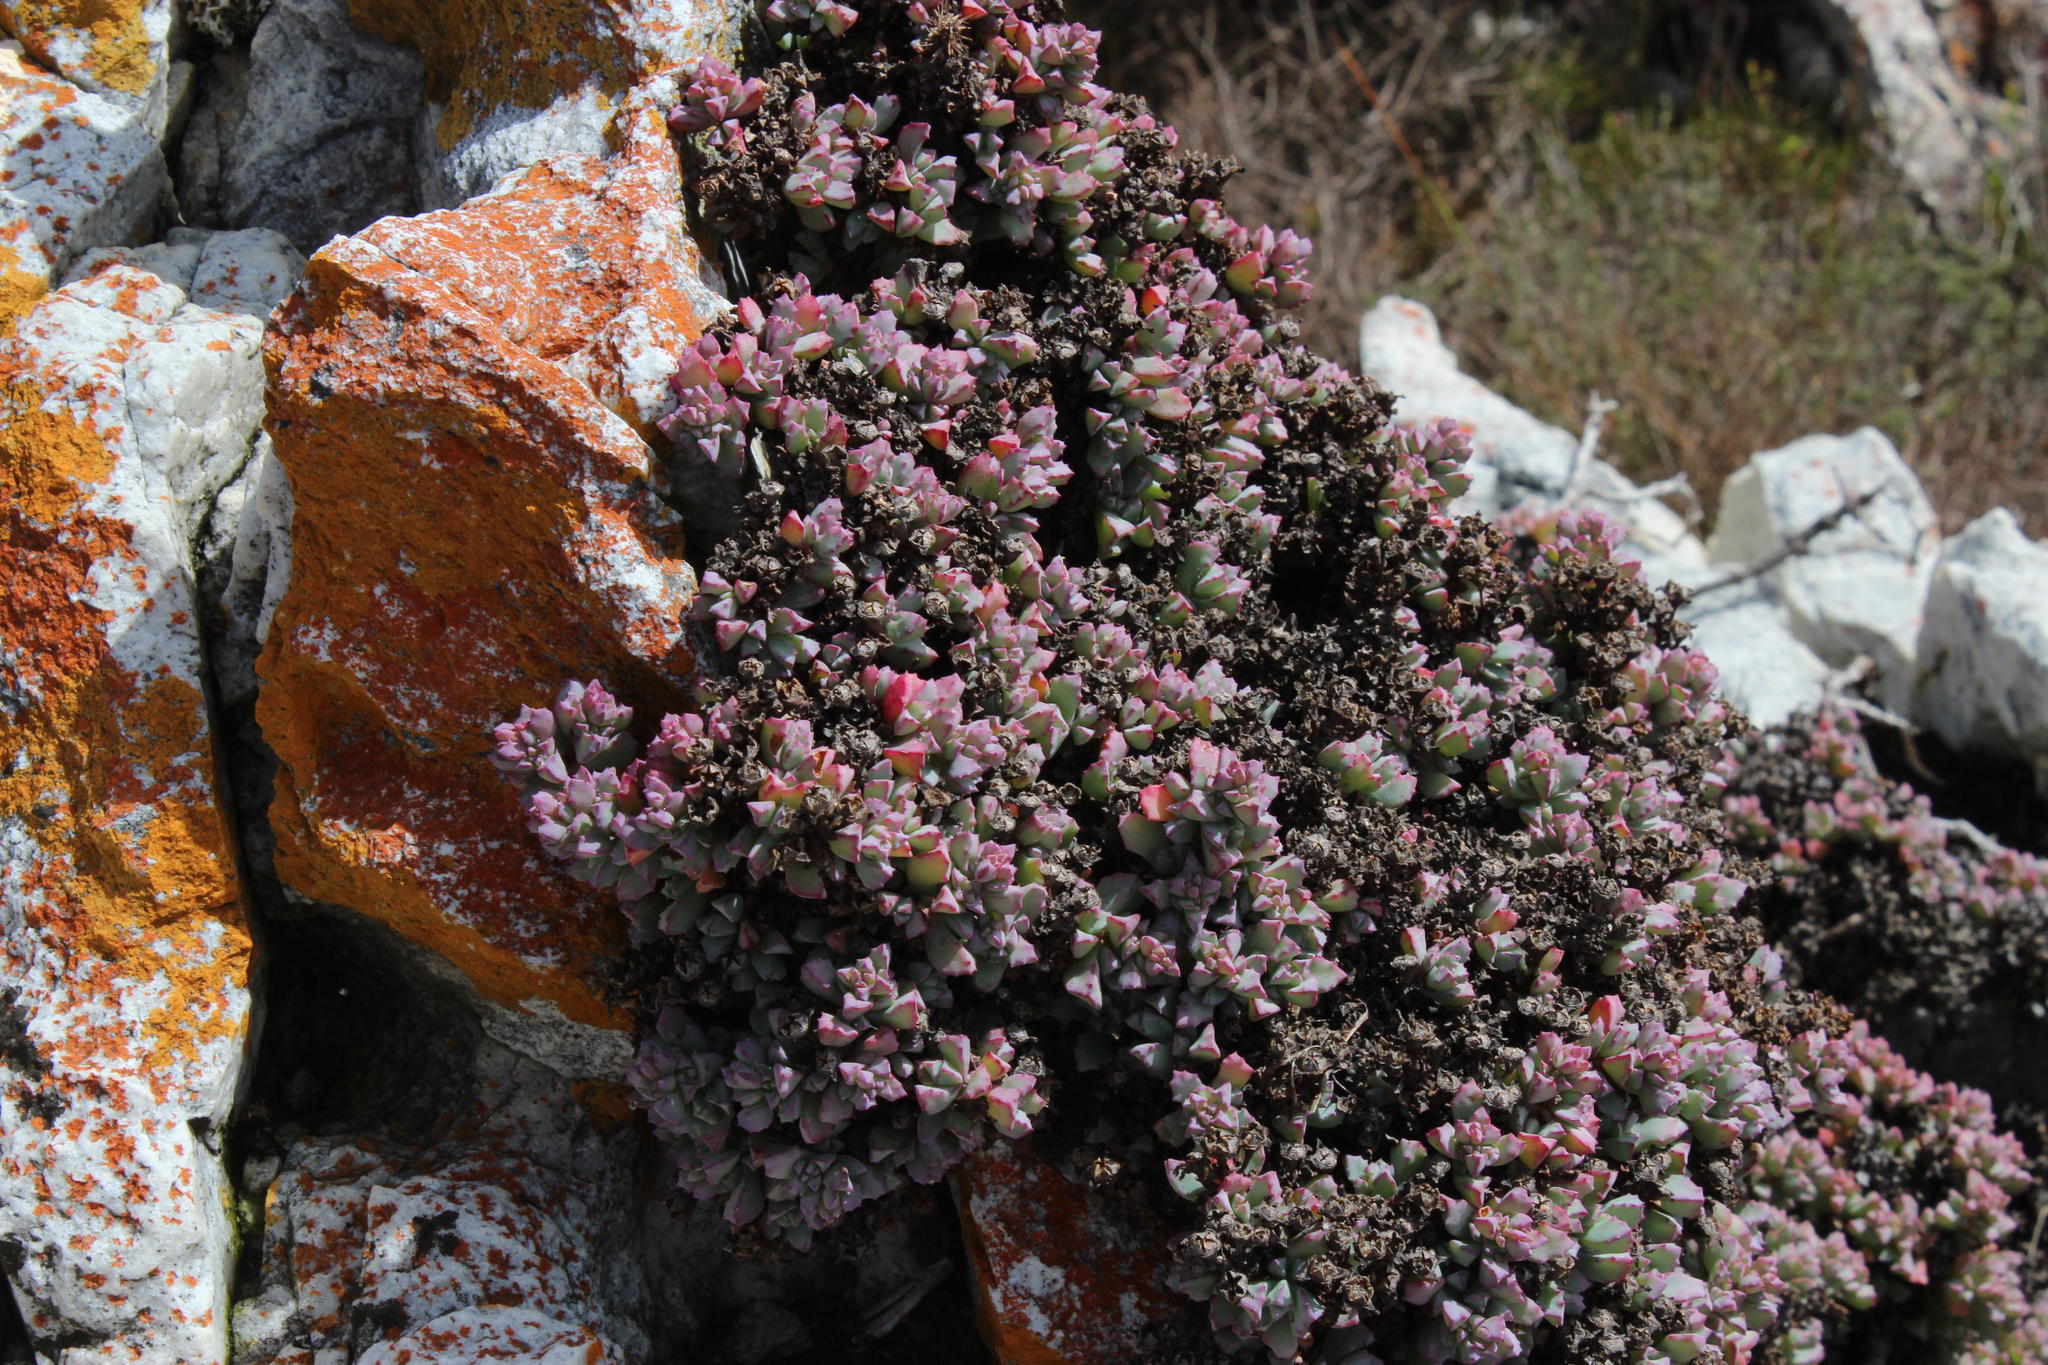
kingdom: Plantae
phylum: Tracheophyta
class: Magnoliopsida
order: Caryophyllales
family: Aizoaceae
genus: Oscularia
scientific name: Oscularia deltoides
